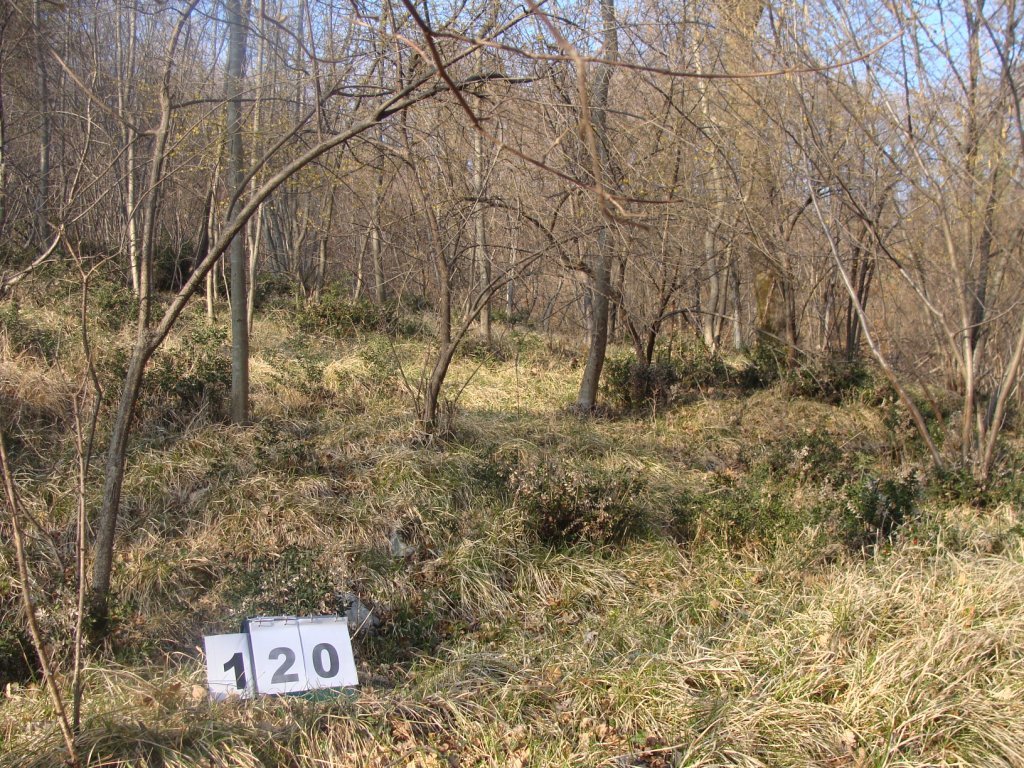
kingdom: Plantae
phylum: Tracheophyta
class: Magnoliopsida
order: Cornales
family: Cornaceae
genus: Cornus
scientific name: Cornus mas
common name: Cornelian-cherry
